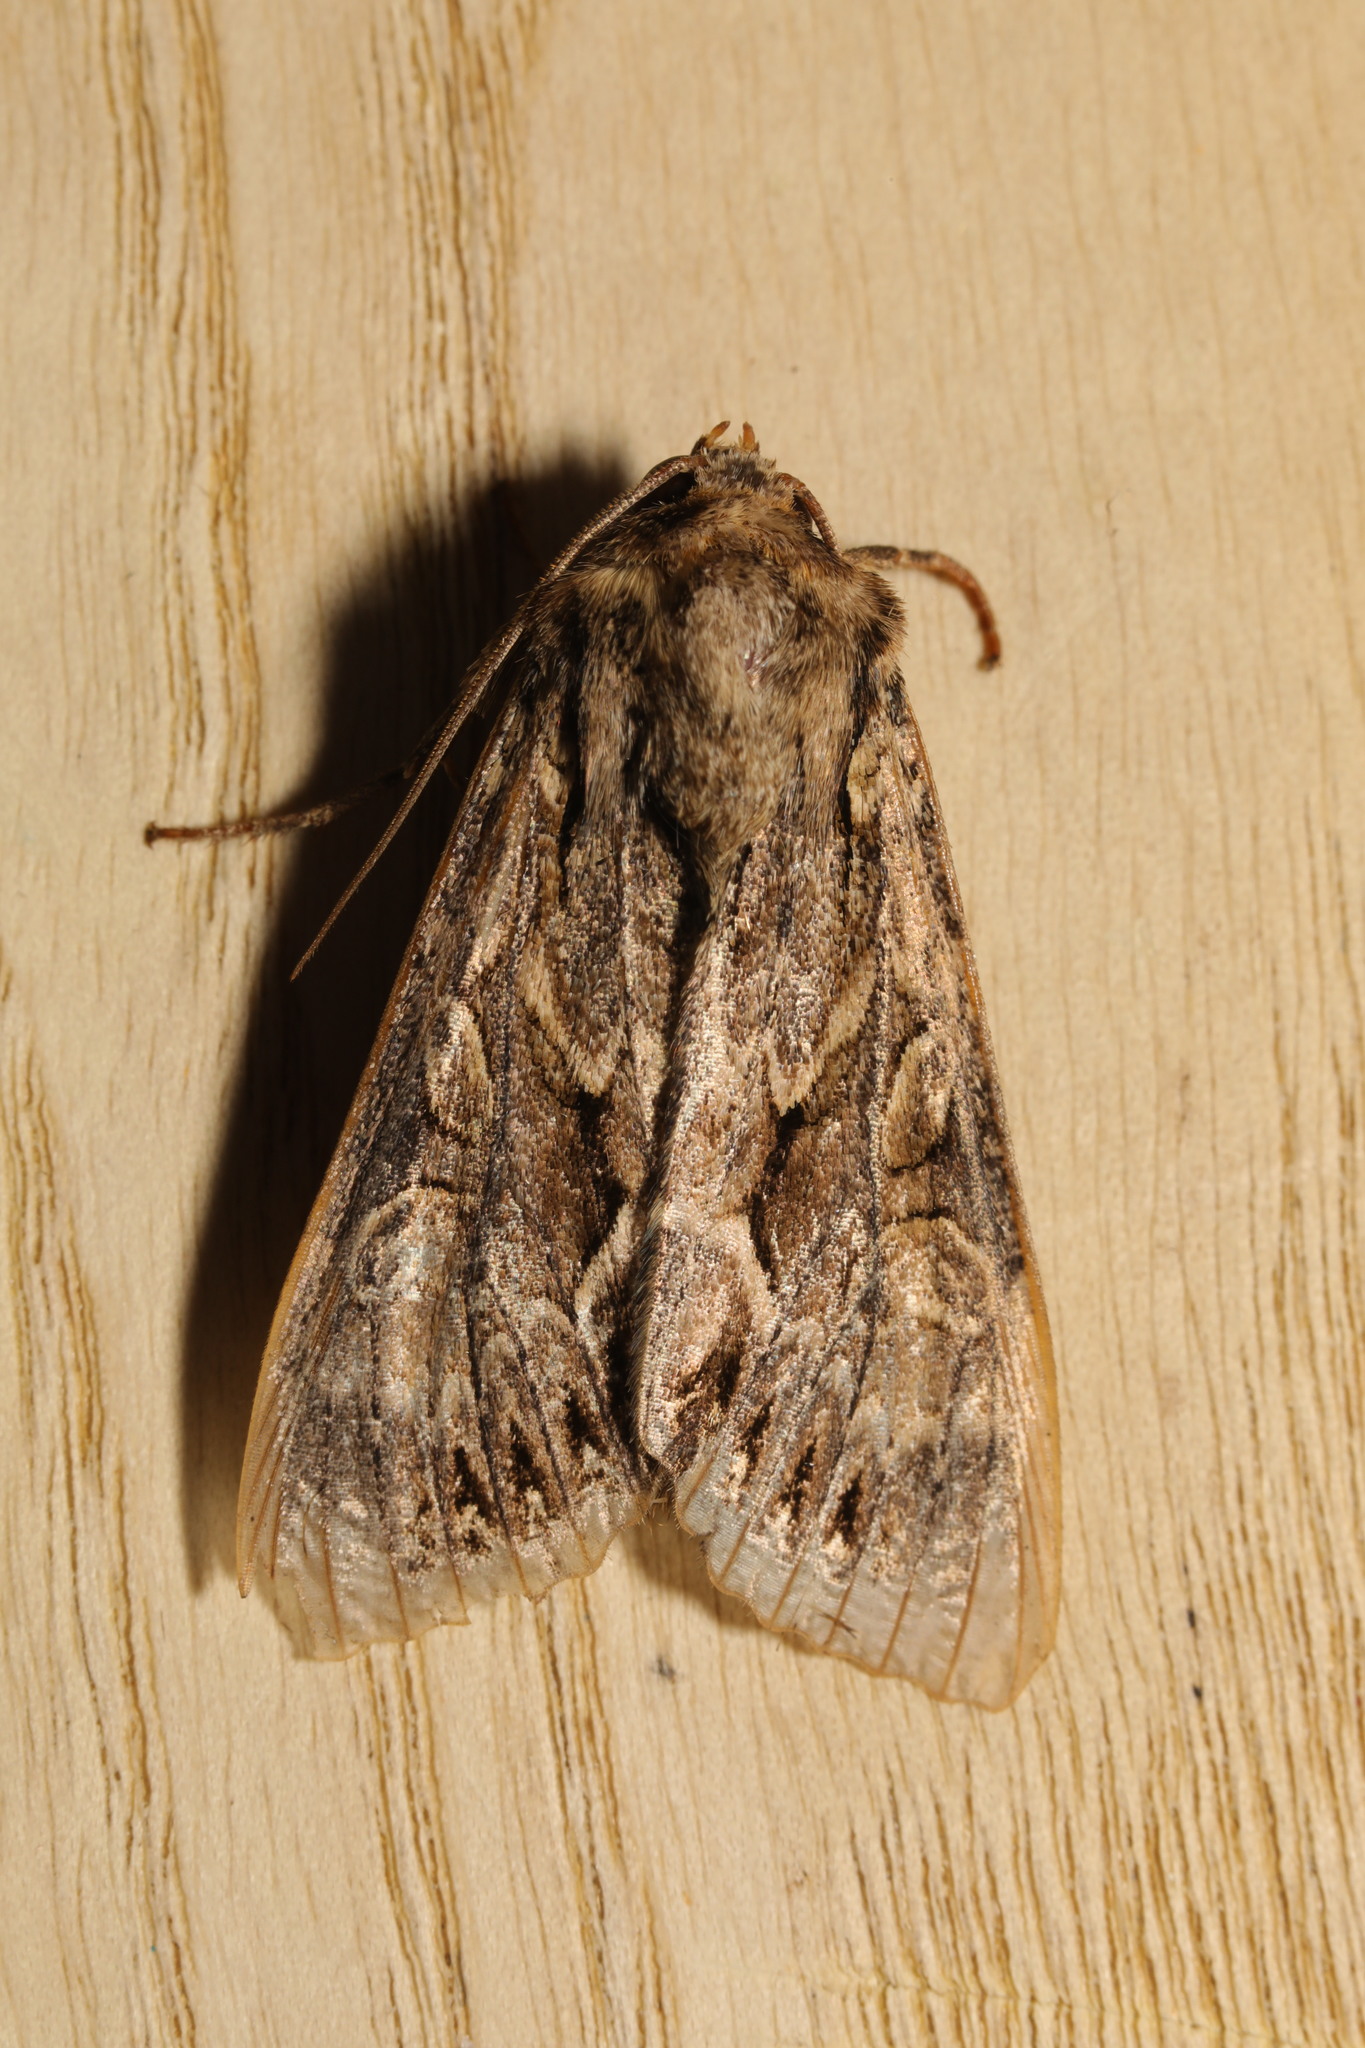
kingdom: Animalia
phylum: Arthropoda
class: Insecta
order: Lepidoptera
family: Noctuidae
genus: Apamea
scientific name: Apamea monoglypha
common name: Dark arches
